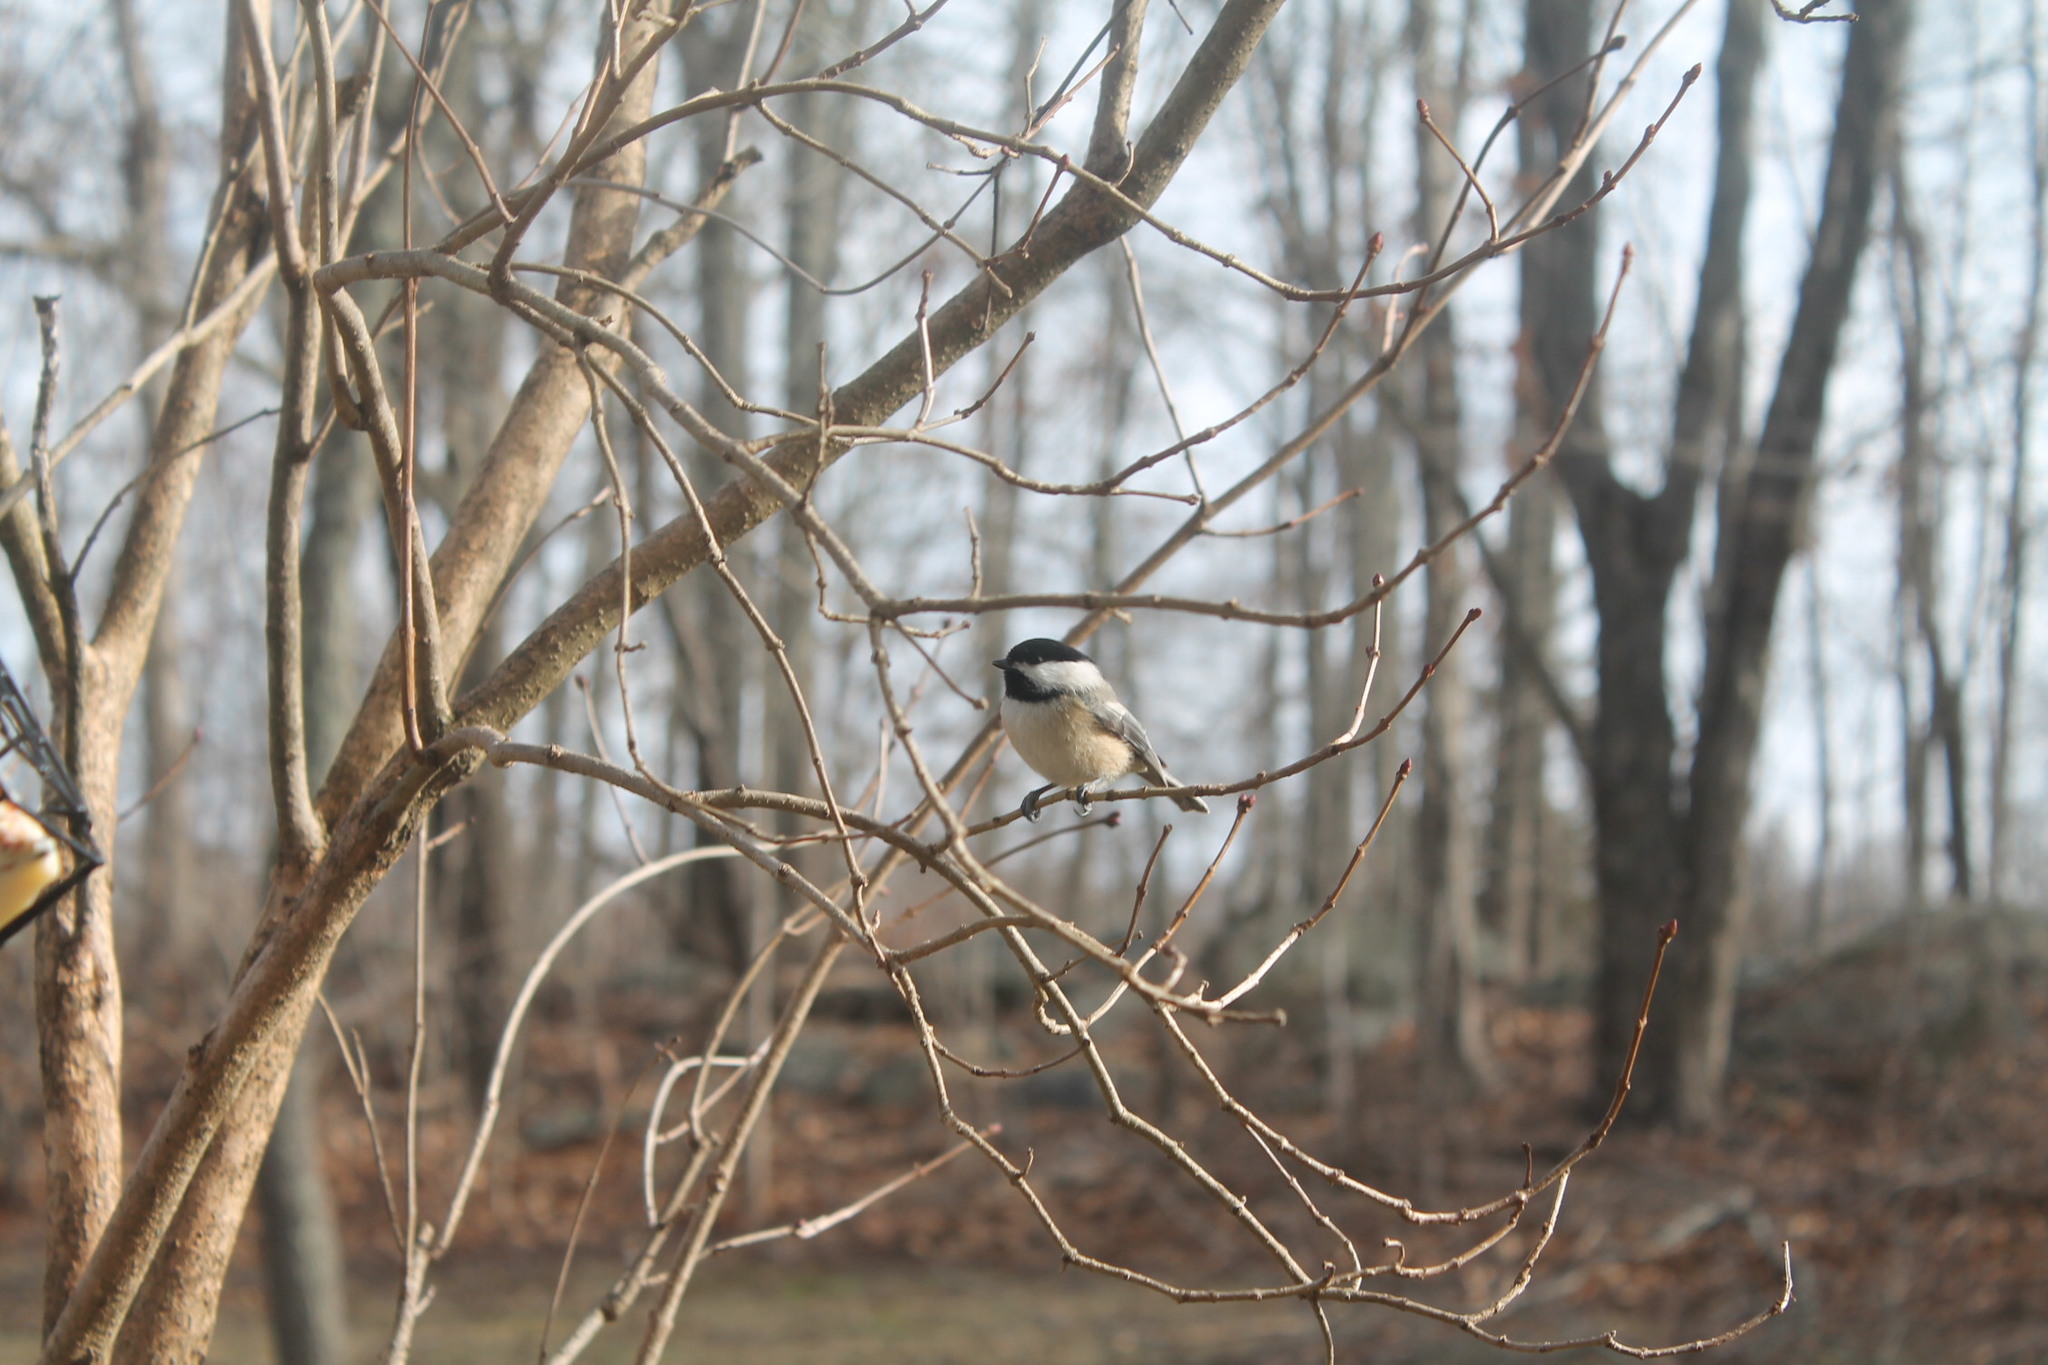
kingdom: Animalia
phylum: Chordata
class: Aves
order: Passeriformes
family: Paridae
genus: Poecile
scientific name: Poecile atricapillus
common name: Black-capped chickadee
